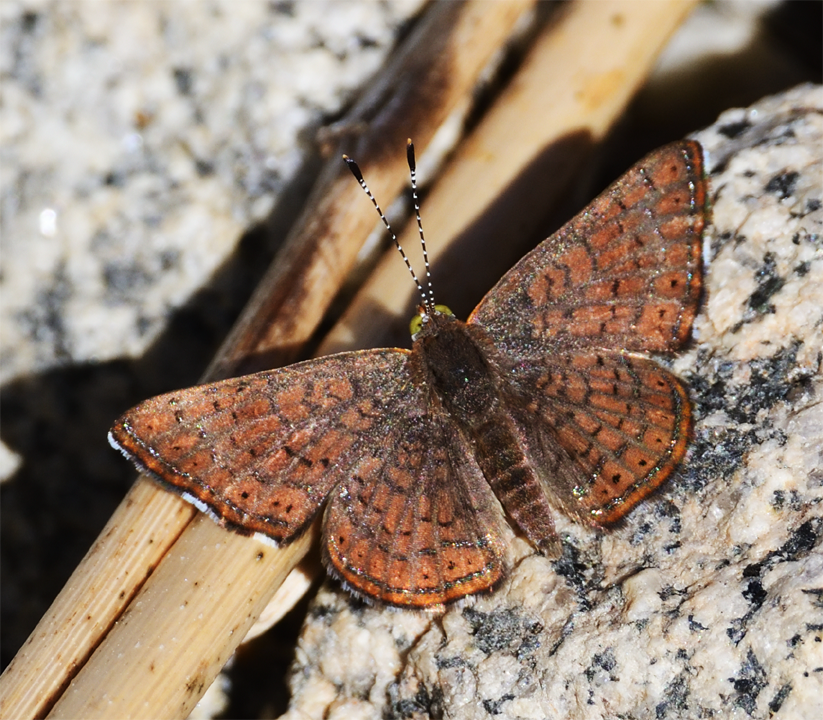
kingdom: Animalia
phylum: Arthropoda
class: Insecta
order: Lepidoptera
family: Lycaenidae
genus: Emesis
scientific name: Emesis wrighti
